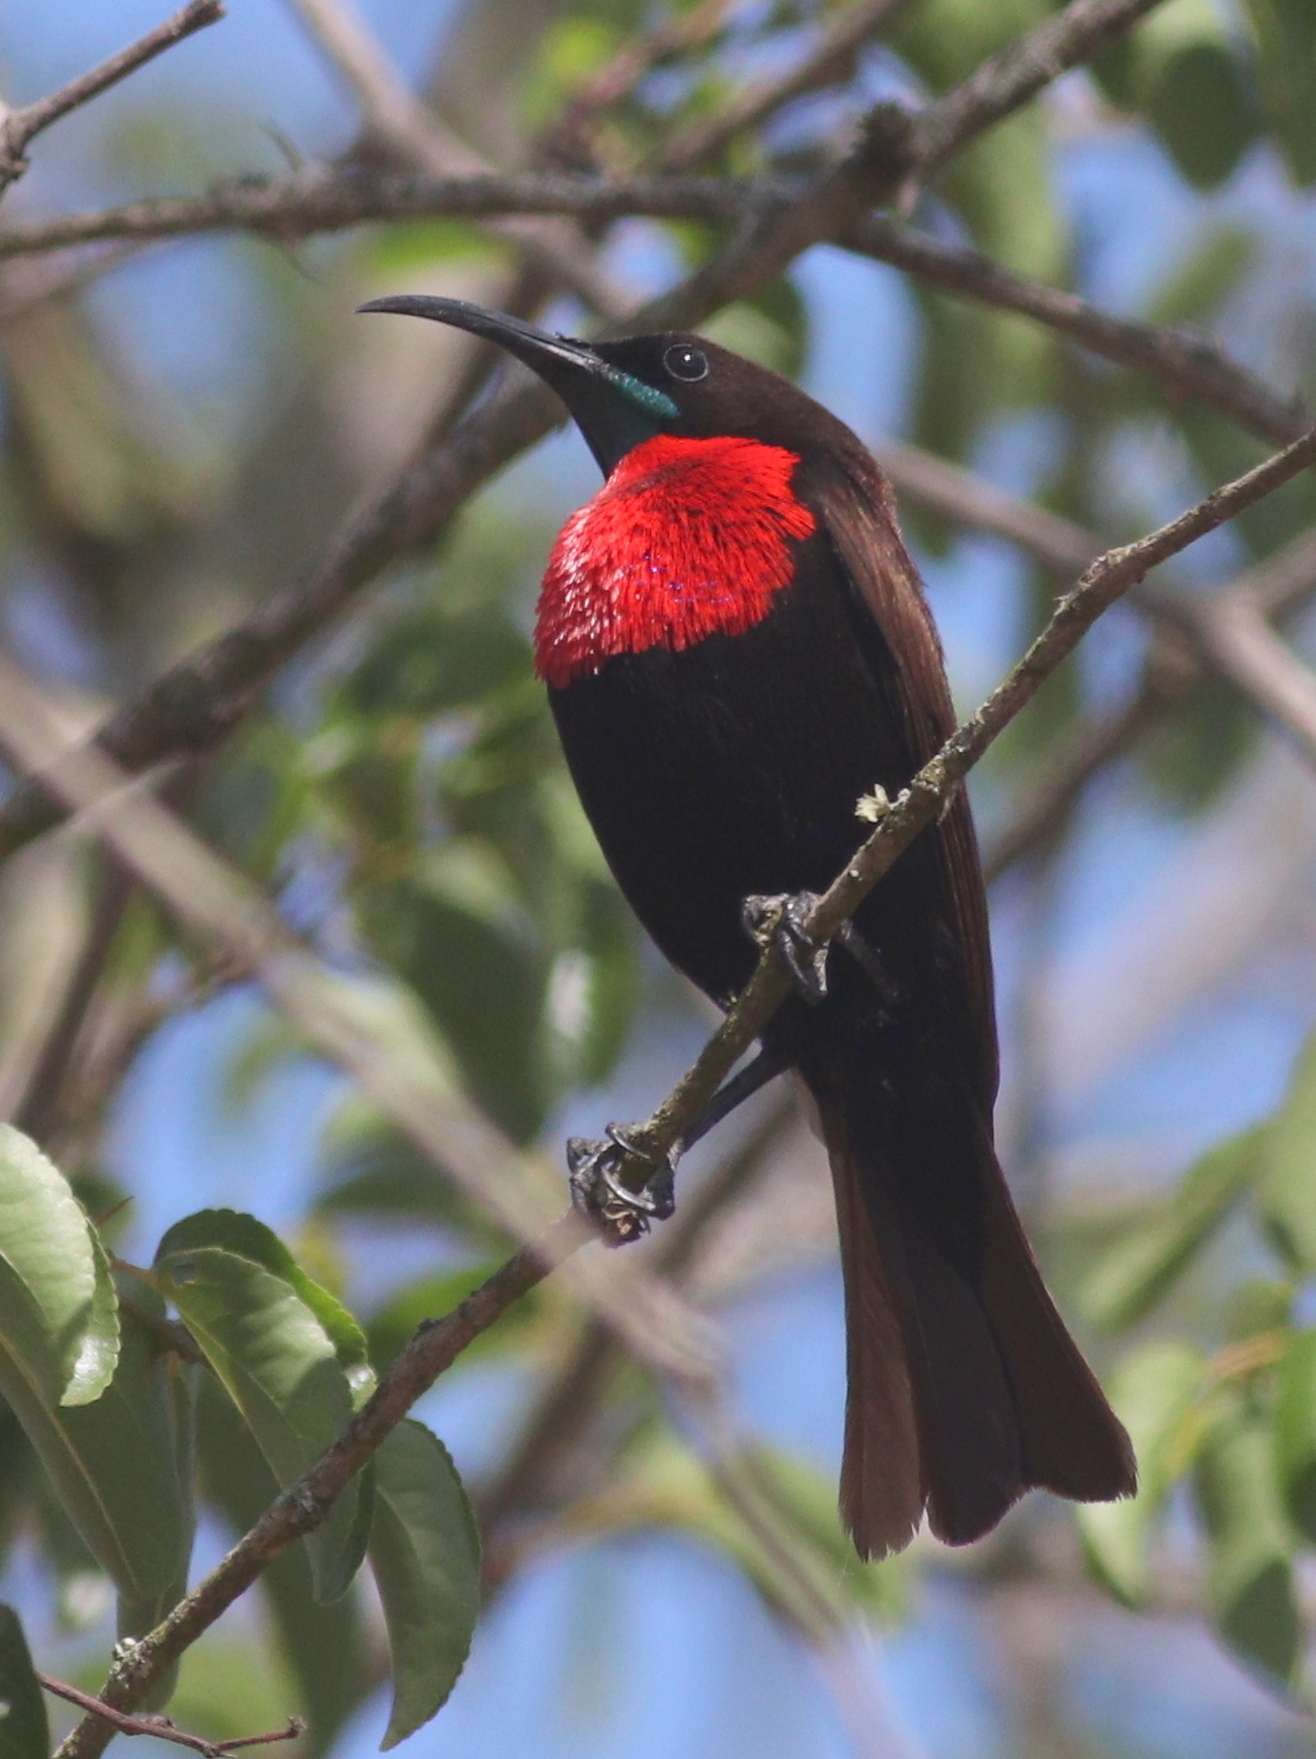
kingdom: Animalia
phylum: Chordata
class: Aves
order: Passeriformes
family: Nectariniidae
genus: Chalcomitra
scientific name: Chalcomitra senegalensis
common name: Scarlet-chested sunbird
